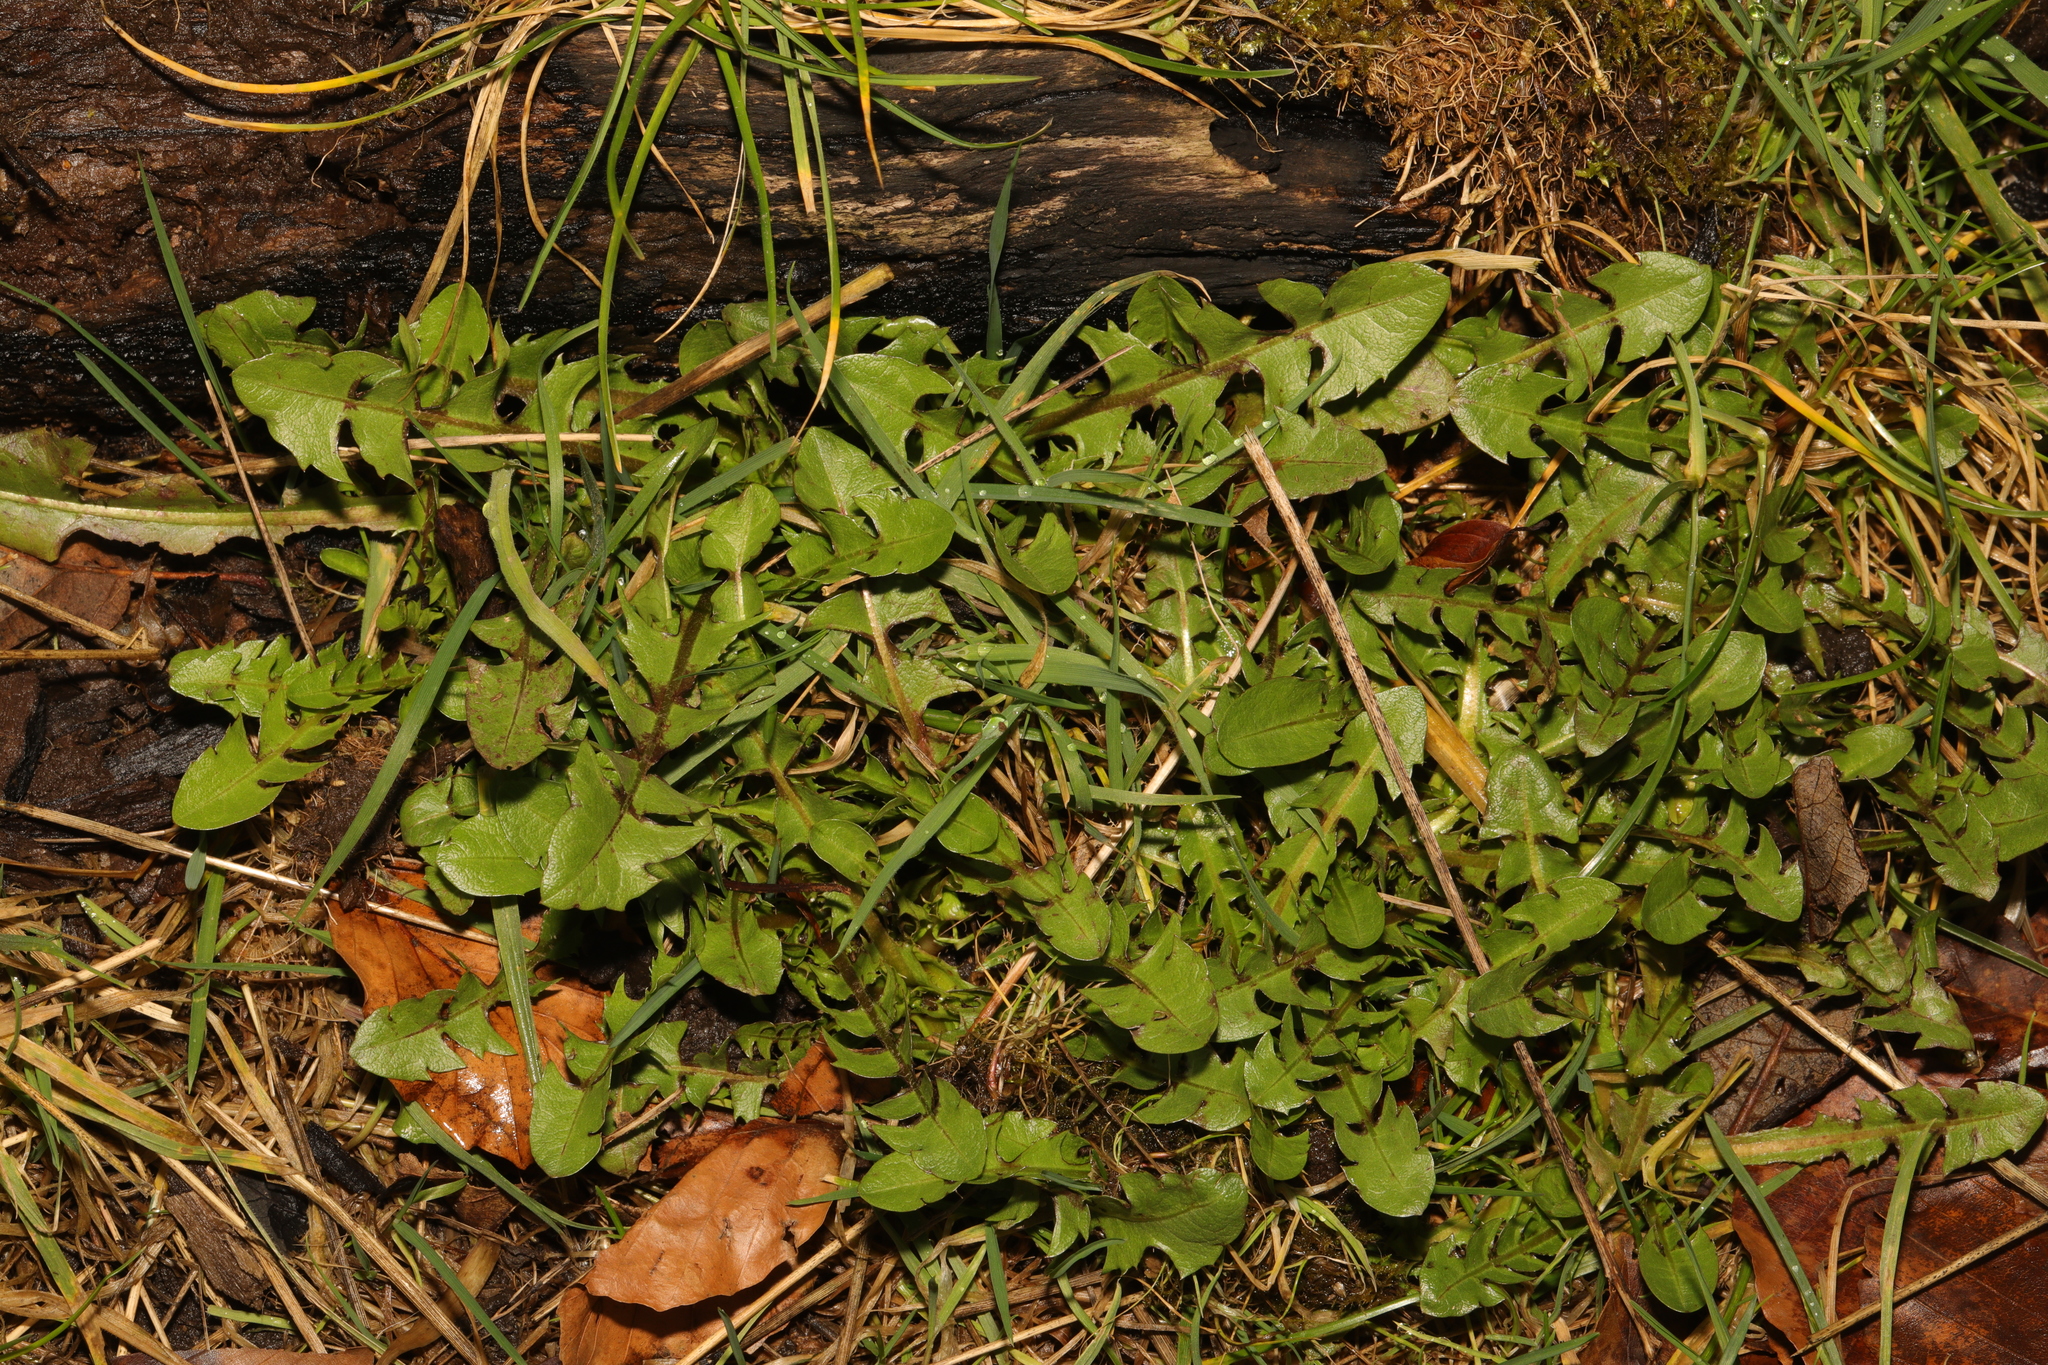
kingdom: Plantae
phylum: Tracheophyta
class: Magnoliopsida
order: Asterales
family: Asteraceae
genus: Taraxacum
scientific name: Taraxacum
